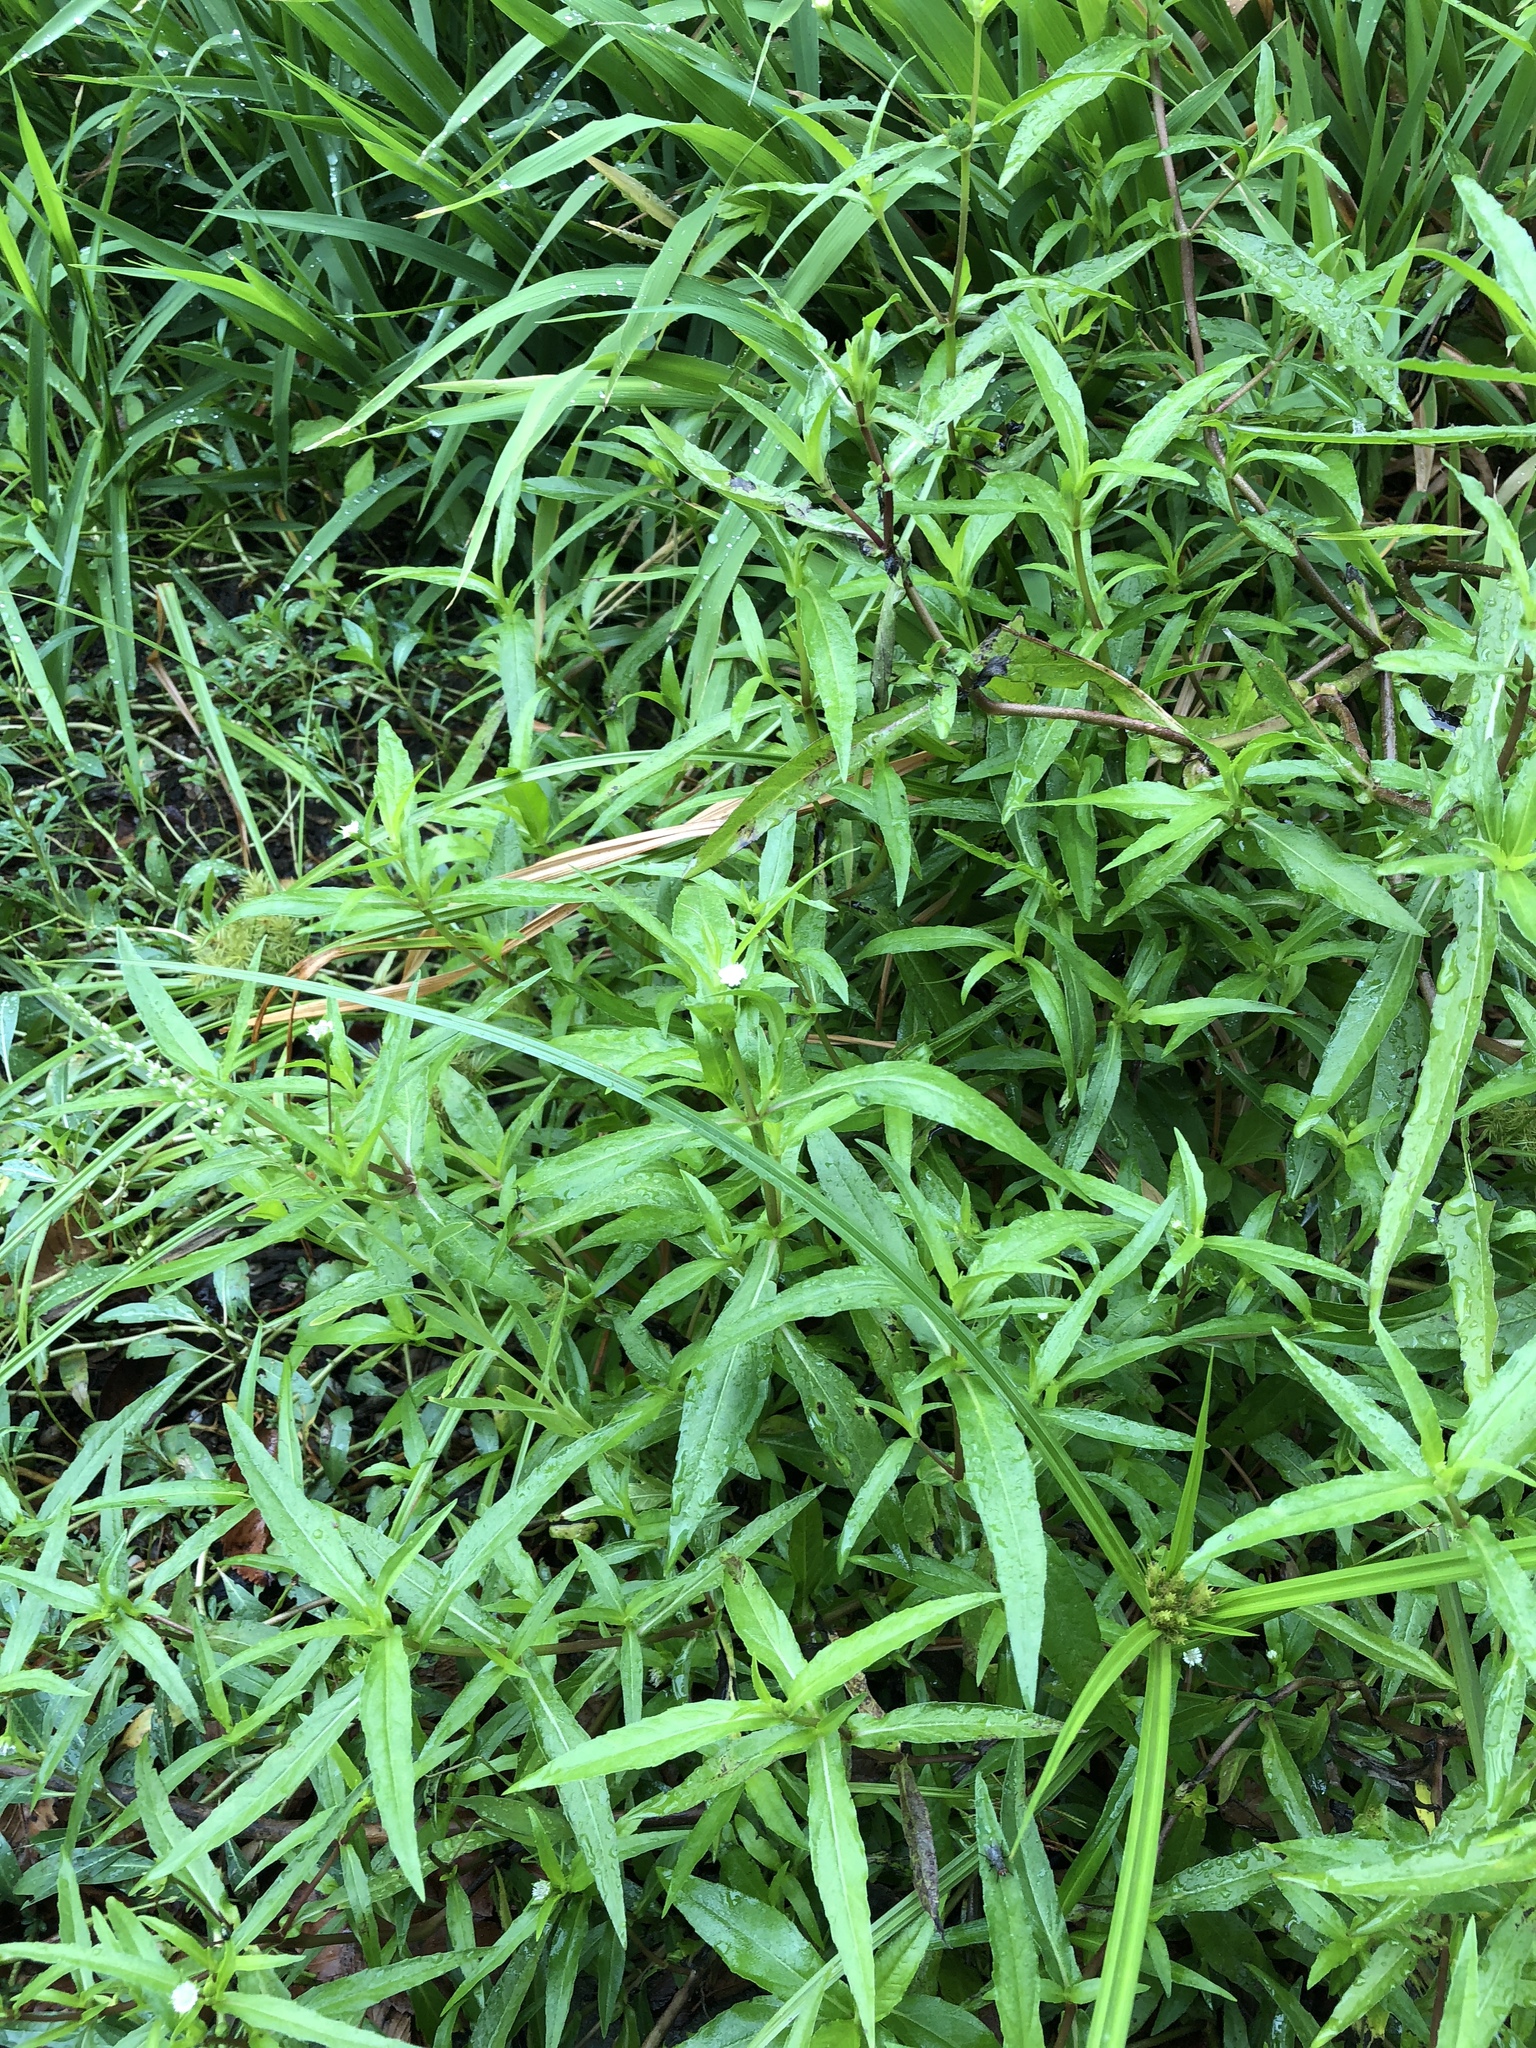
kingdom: Plantae
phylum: Tracheophyta
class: Magnoliopsida
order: Asterales
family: Asteraceae
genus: Eclipta
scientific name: Eclipta prostrata
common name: False daisy
